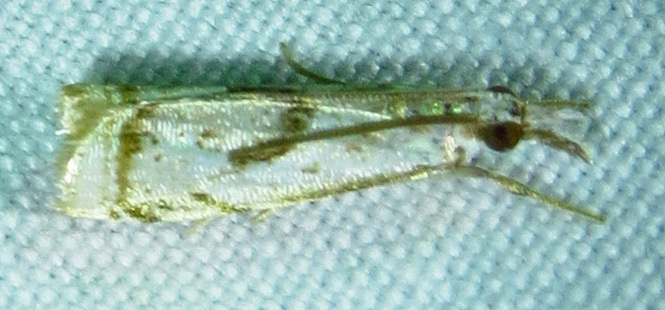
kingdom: Animalia
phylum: Arthropoda
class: Insecta
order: Lepidoptera
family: Crambidae
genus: Microcrambus
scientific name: Microcrambus elegans
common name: Elegant grass-veneer
